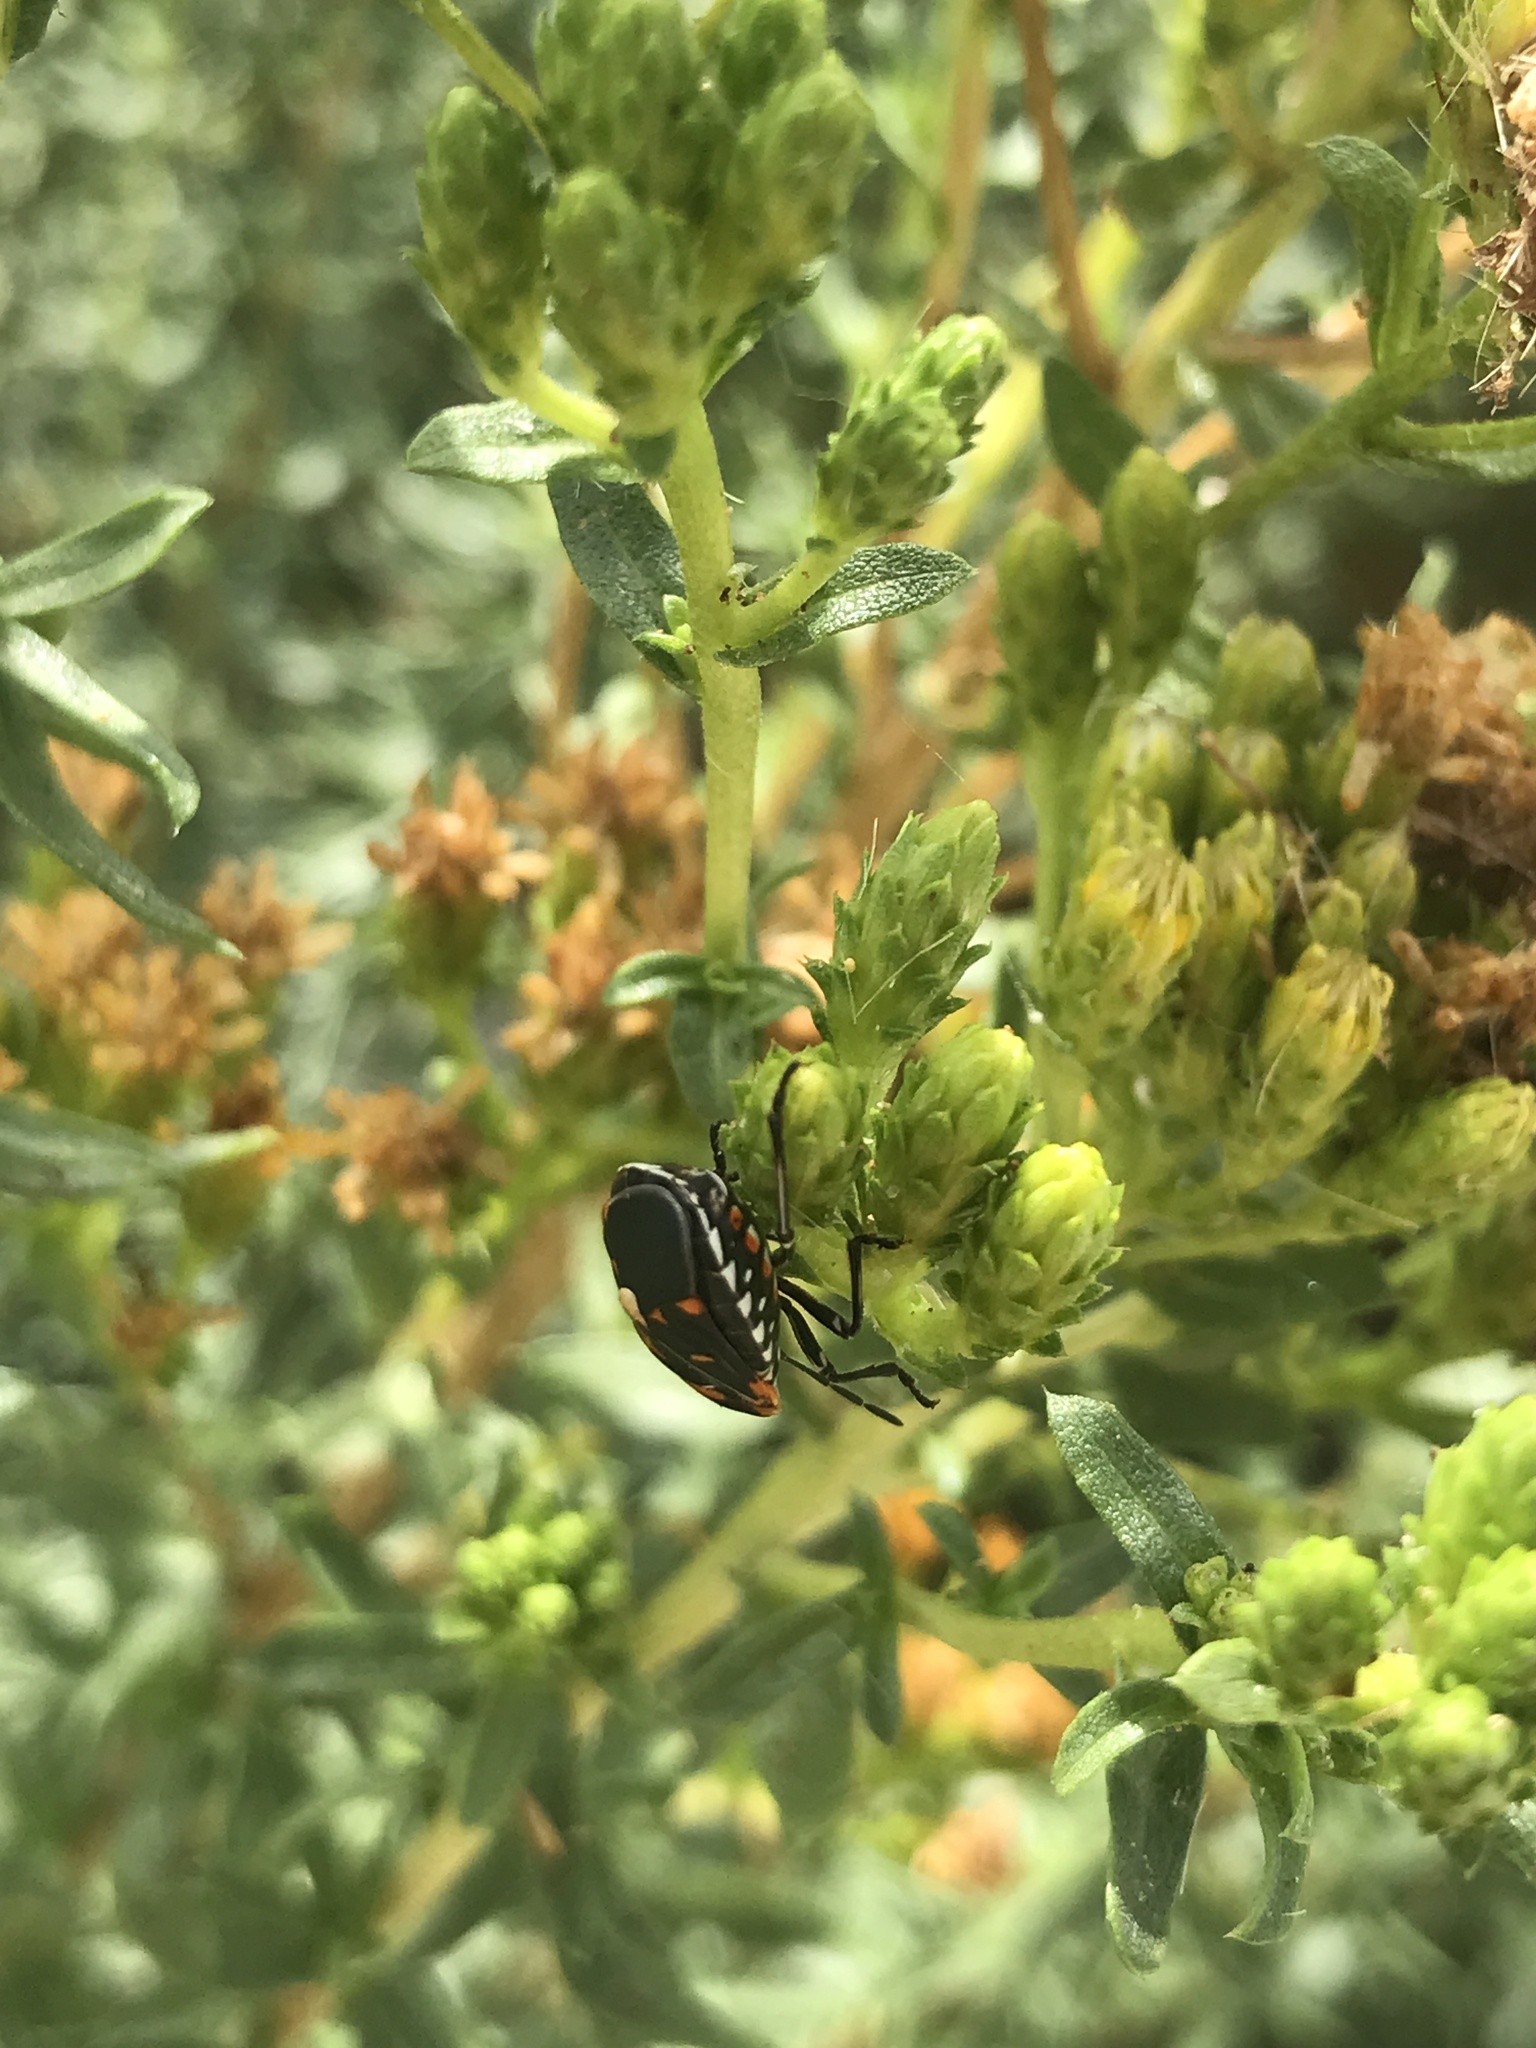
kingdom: Animalia
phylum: Arthropoda
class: Insecta
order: Hemiptera
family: Pentatomidae
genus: Murgantia
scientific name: Murgantia histrionica
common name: Harlequin bug
